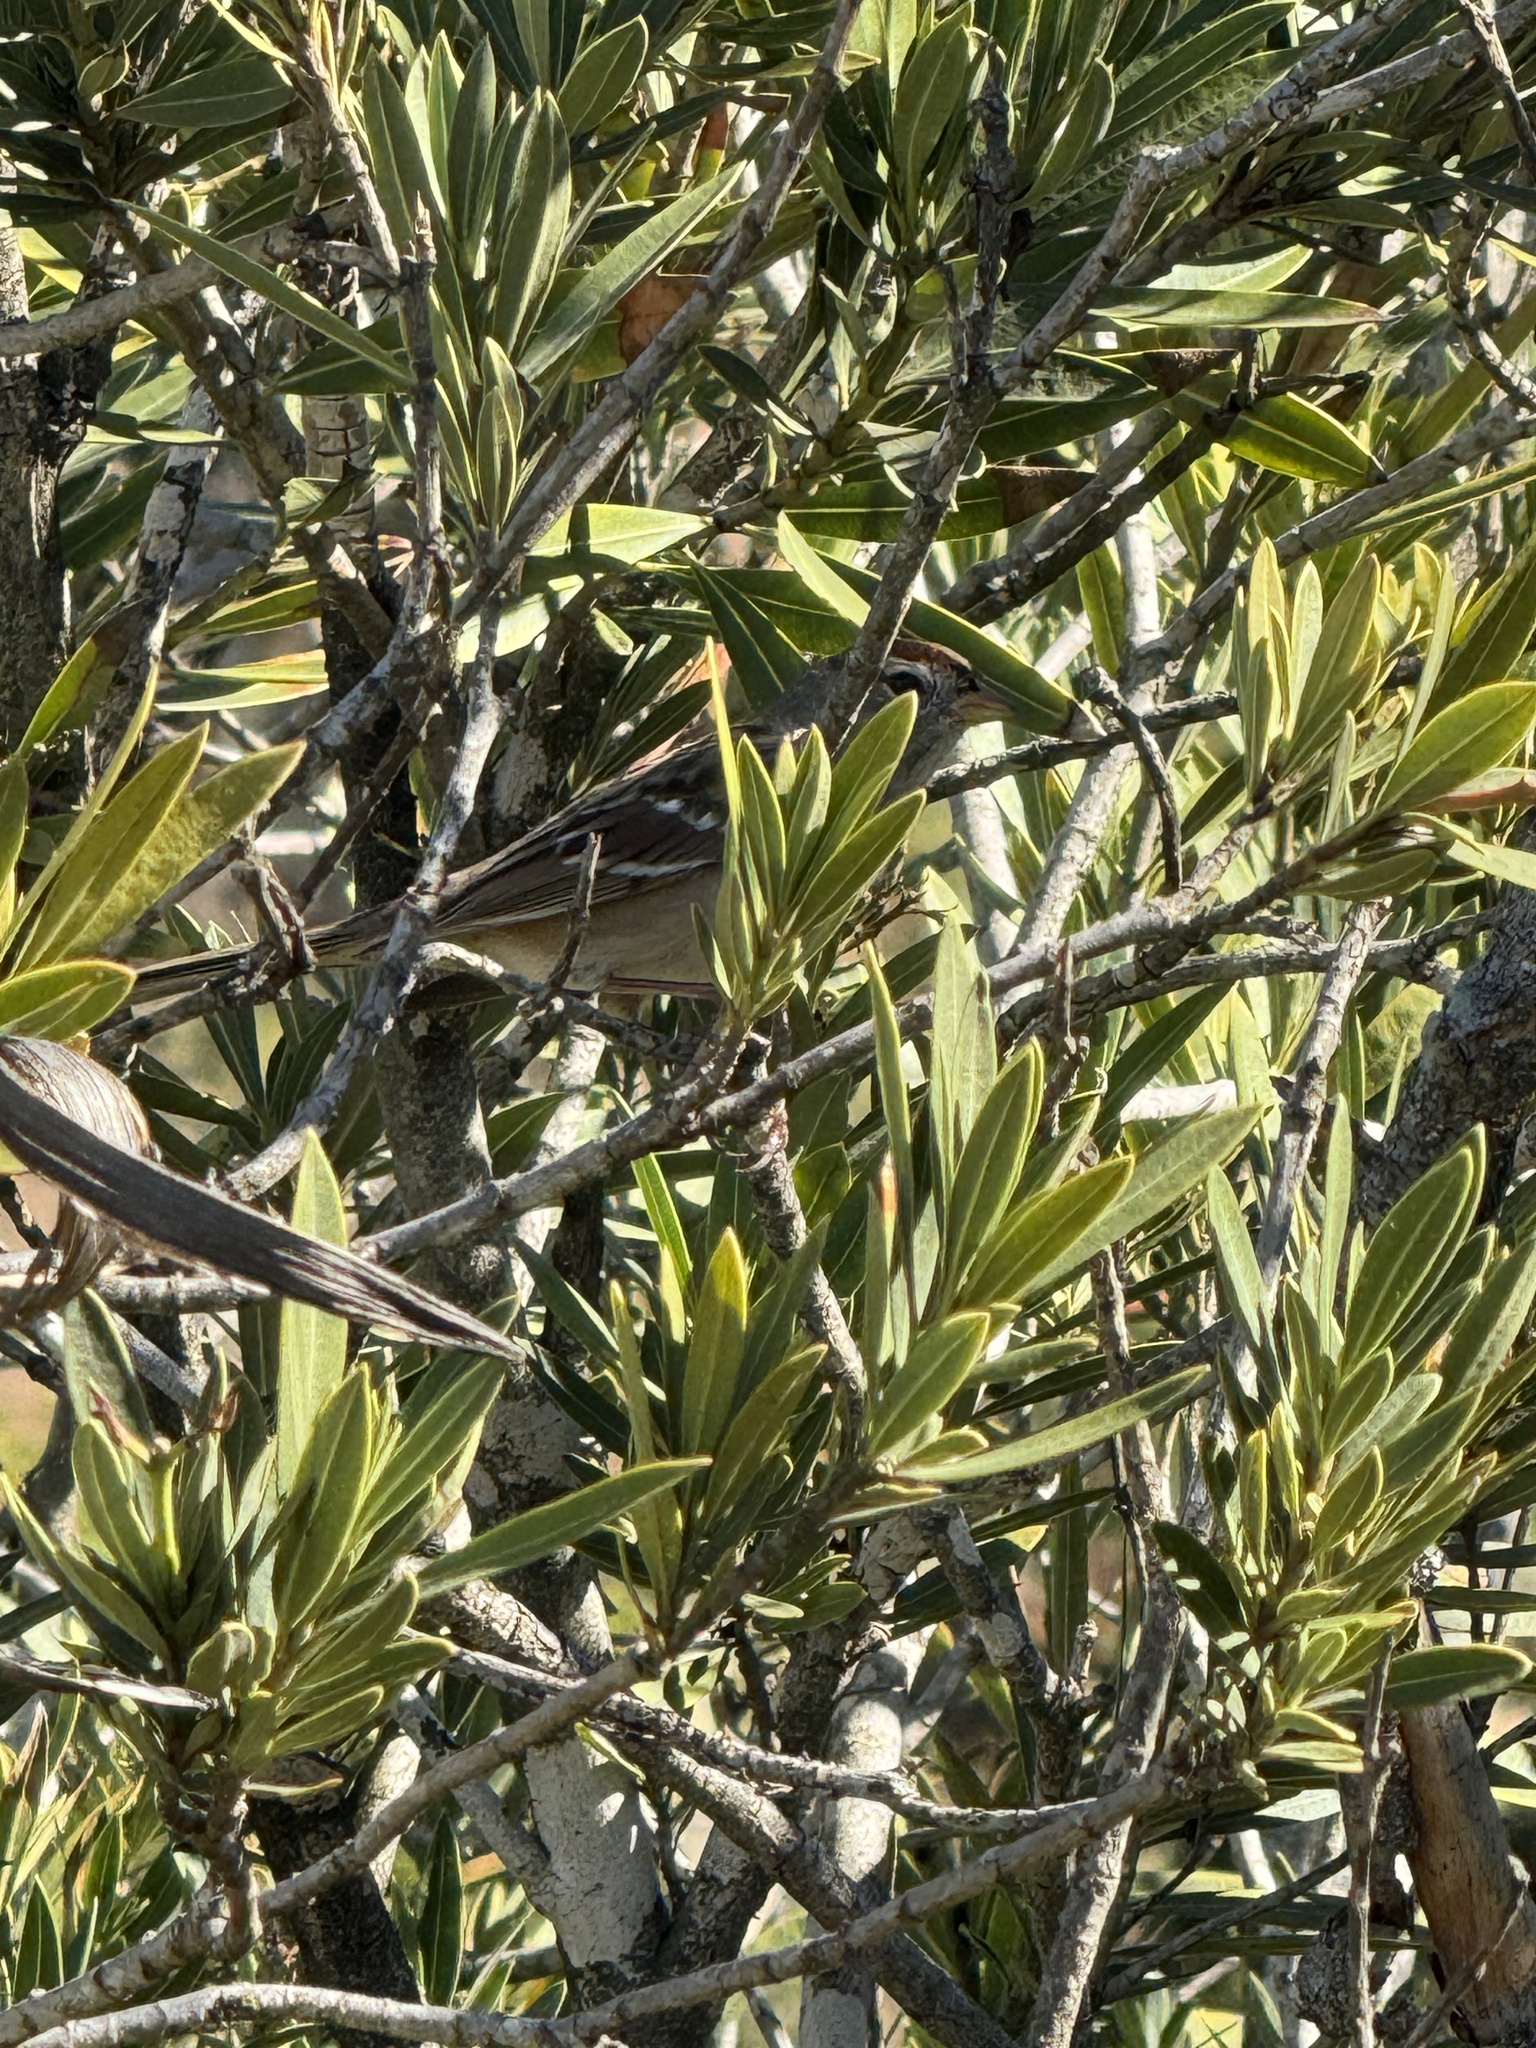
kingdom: Animalia
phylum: Chordata
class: Aves
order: Passeriformes
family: Passerellidae
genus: Zonotrichia
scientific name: Zonotrichia leucophrys
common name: White-crowned sparrow
